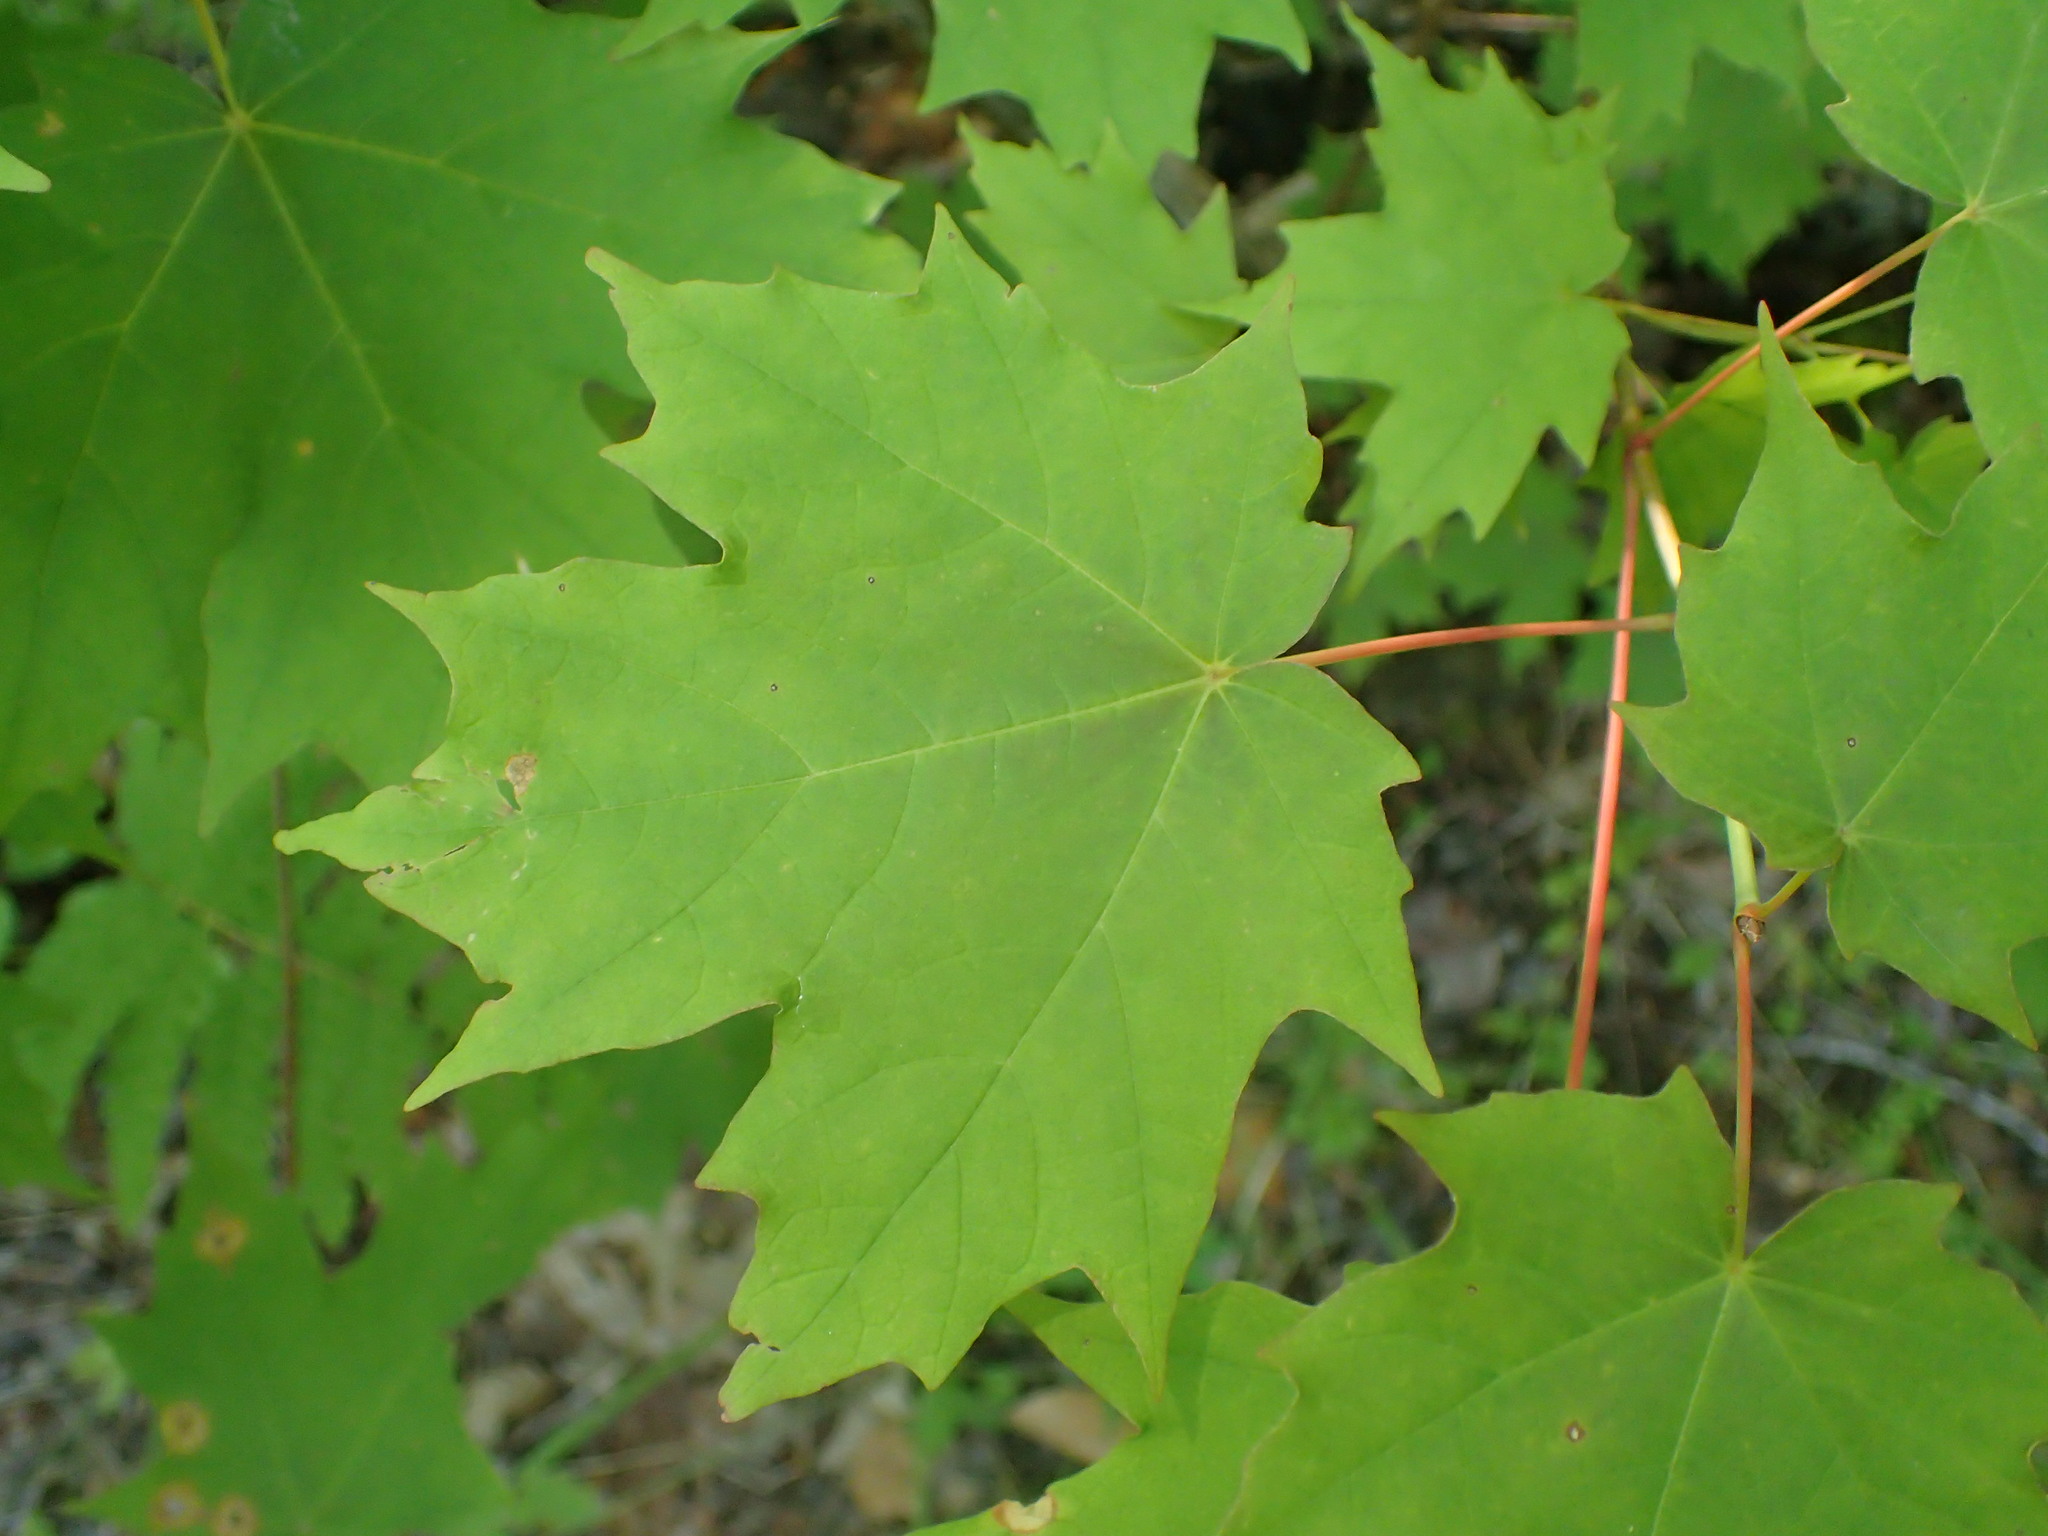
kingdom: Plantae
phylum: Tracheophyta
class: Magnoliopsida
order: Sapindales
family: Sapindaceae
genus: Acer
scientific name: Acer saccharum
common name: Sugar maple
